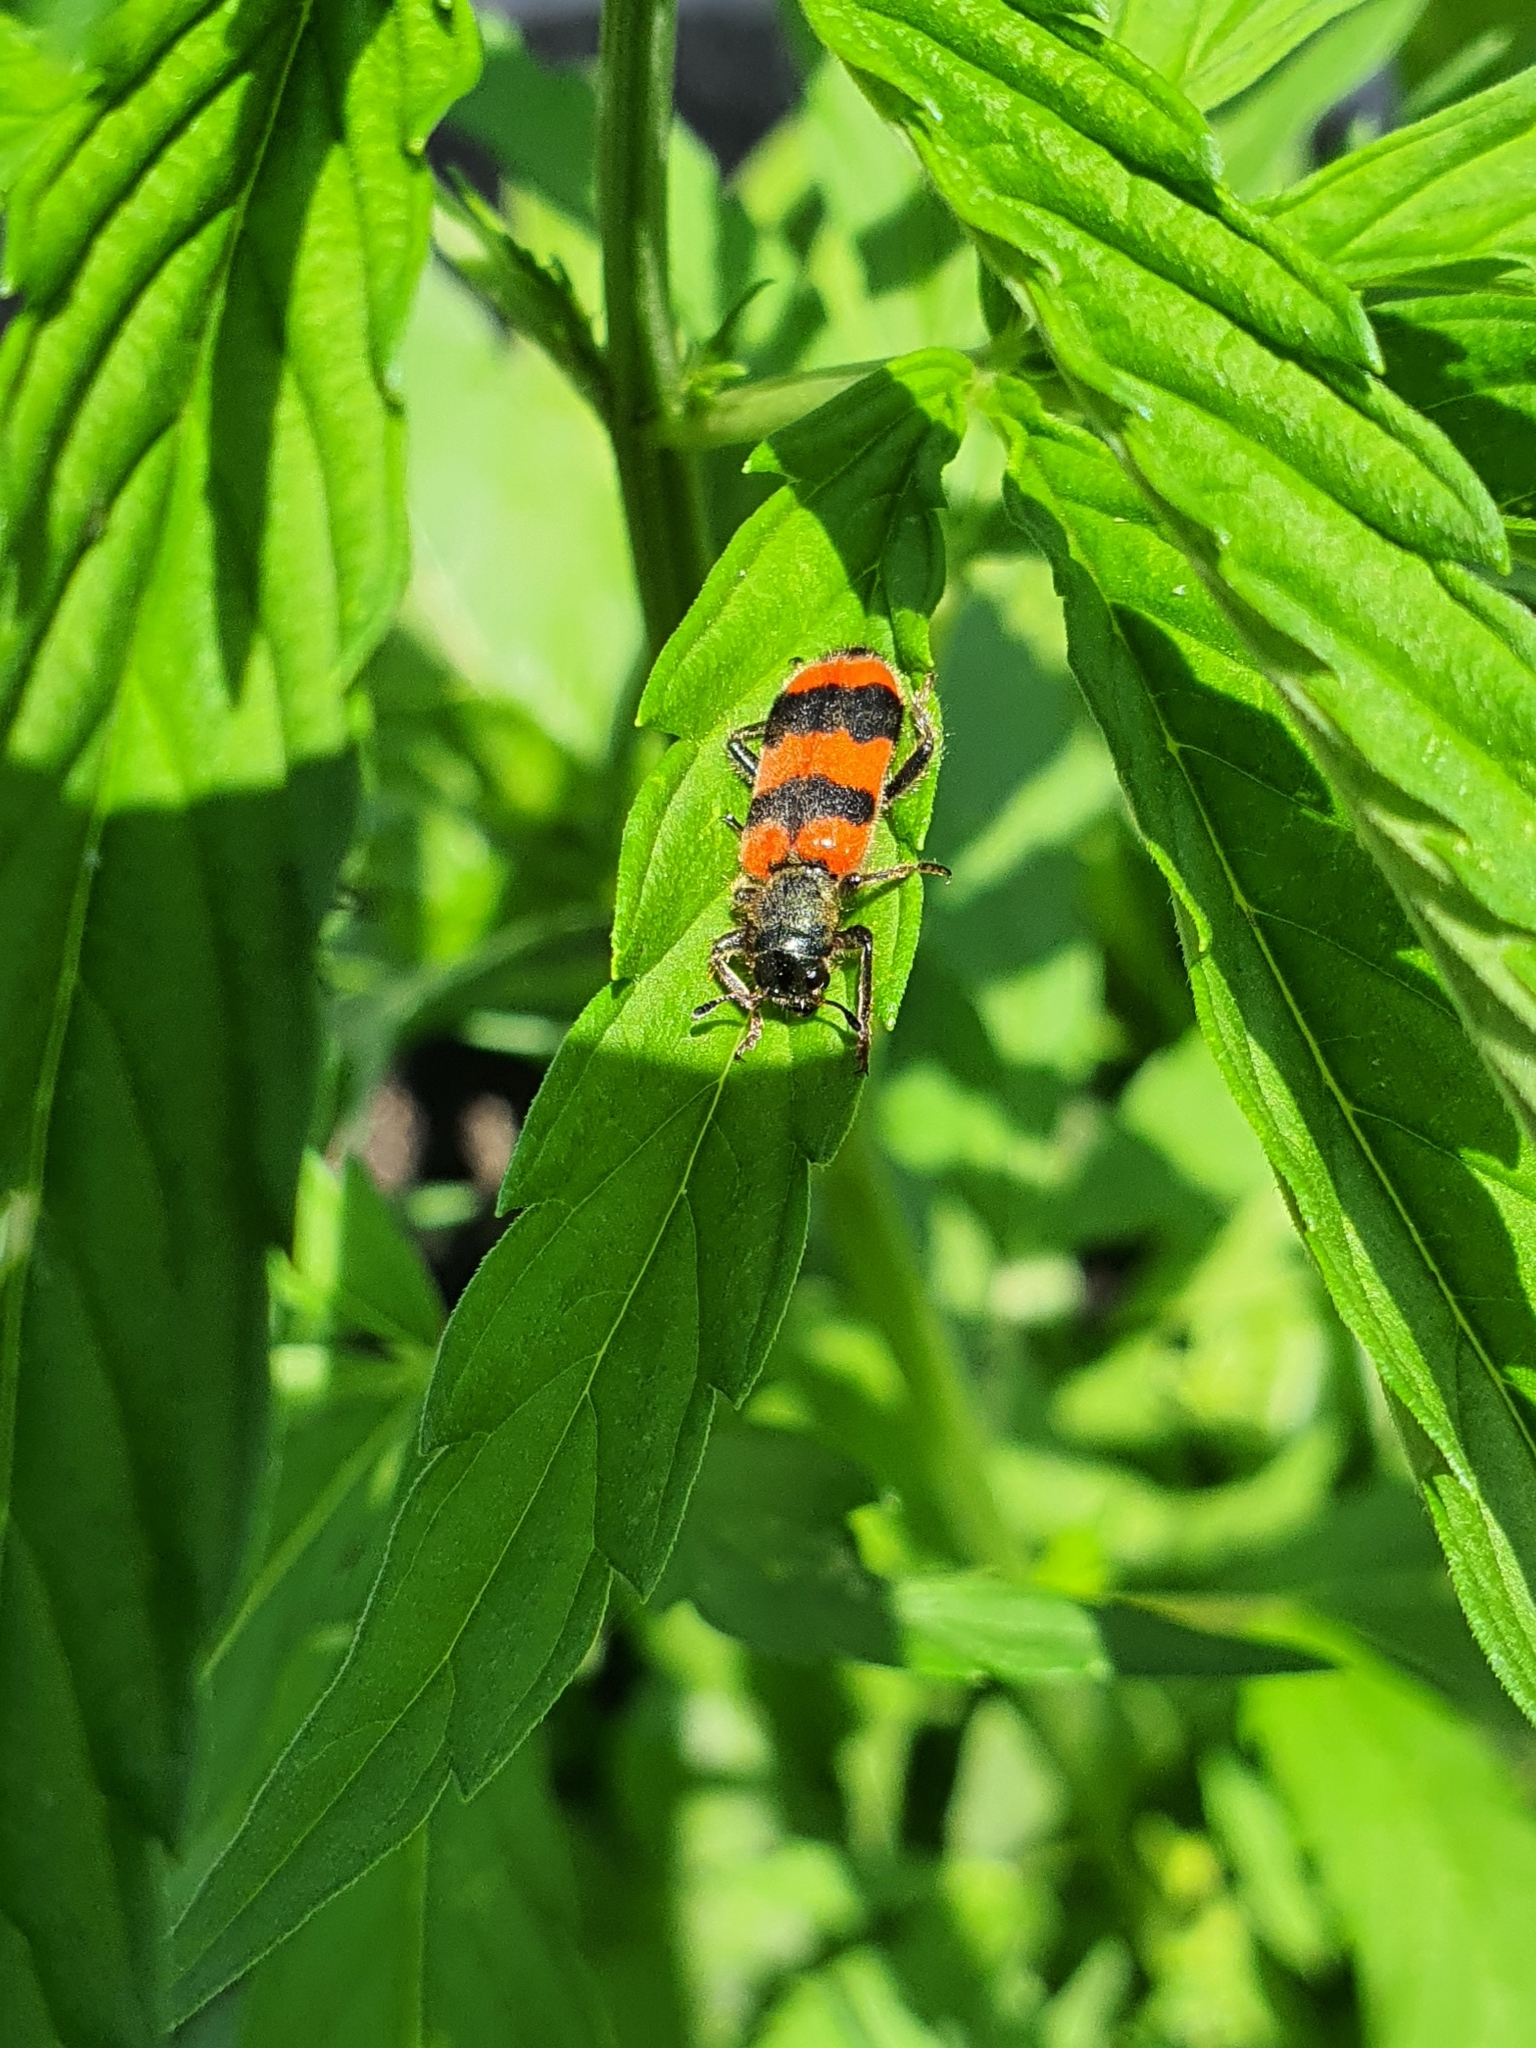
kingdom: Animalia
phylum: Arthropoda
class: Insecta
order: Coleoptera
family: Cleridae
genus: Trichodes
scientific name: Trichodes apiarius
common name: Bee-eating beetle
